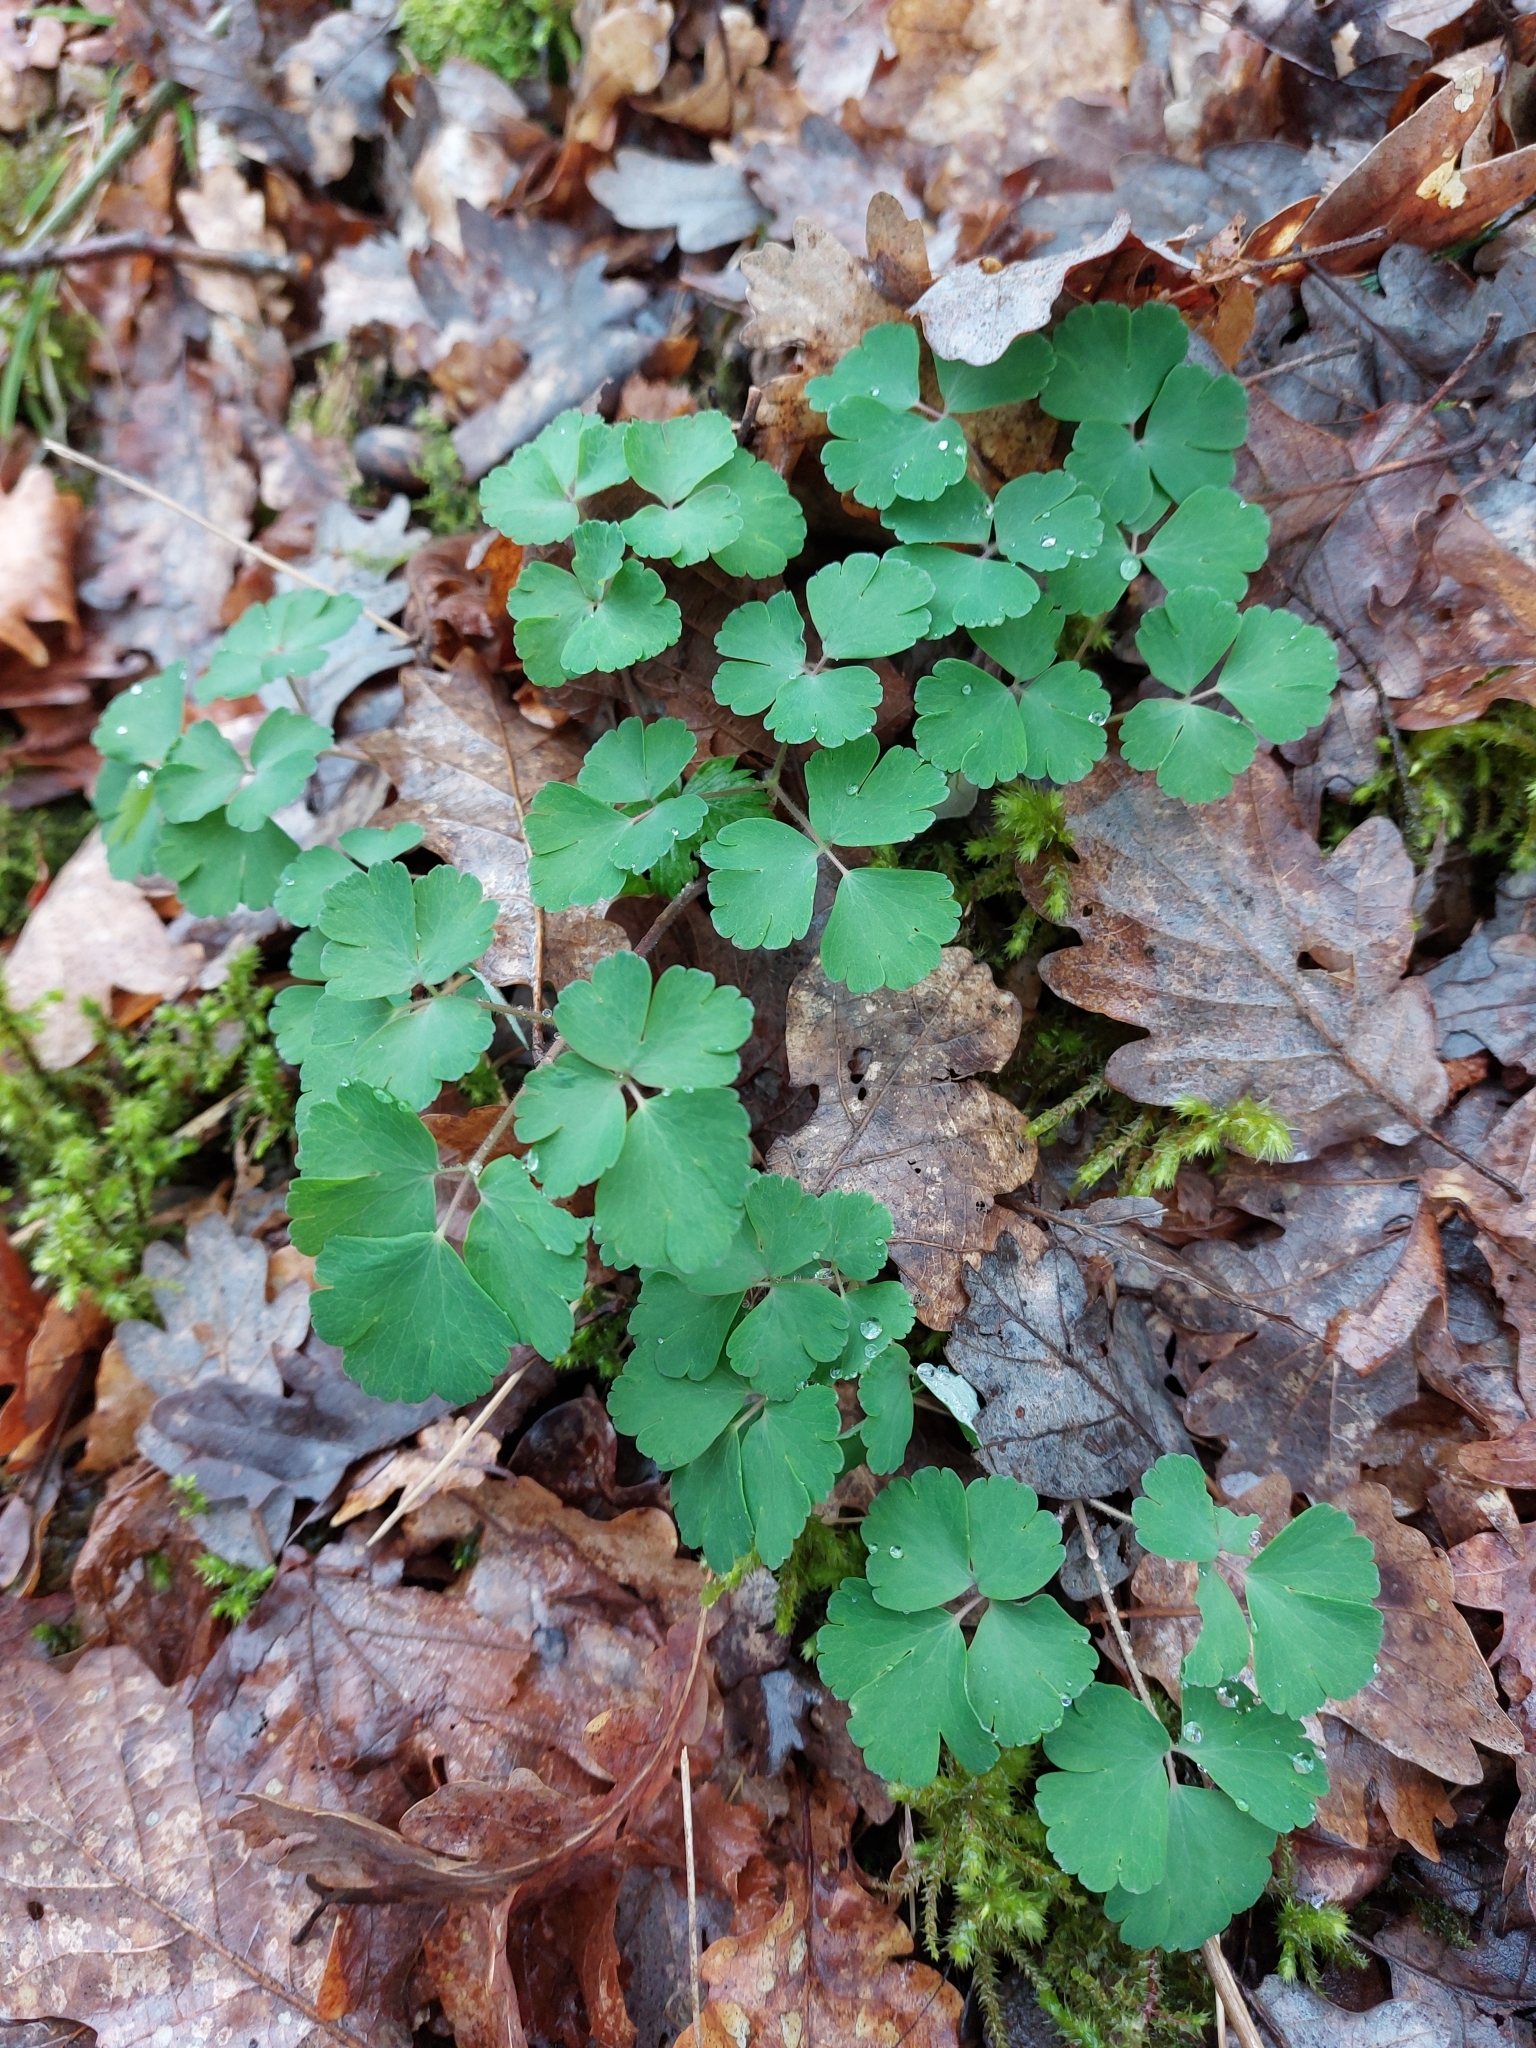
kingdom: Plantae
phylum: Tracheophyta
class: Magnoliopsida
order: Ranunculales
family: Ranunculaceae
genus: Aquilegia
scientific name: Aquilegia vulgaris
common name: Columbine
